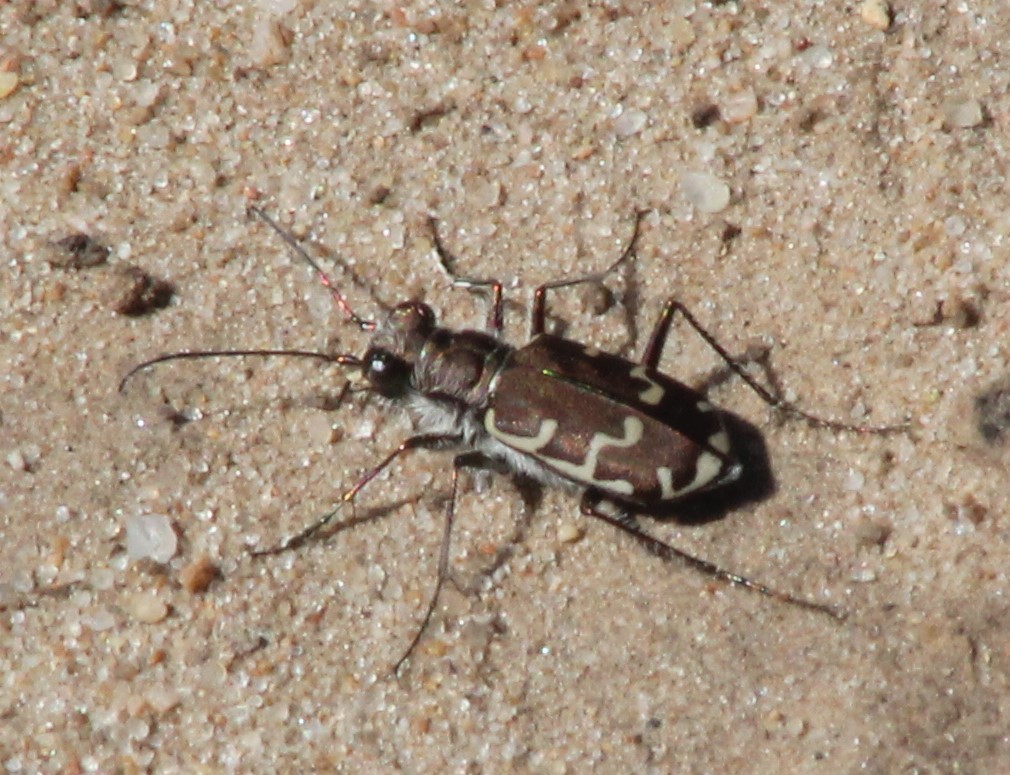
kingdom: Animalia
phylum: Arthropoda
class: Insecta
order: Coleoptera
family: Carabidae
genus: Cicindela
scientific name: Cicindela repanda
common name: Bronzed tiger beetle
